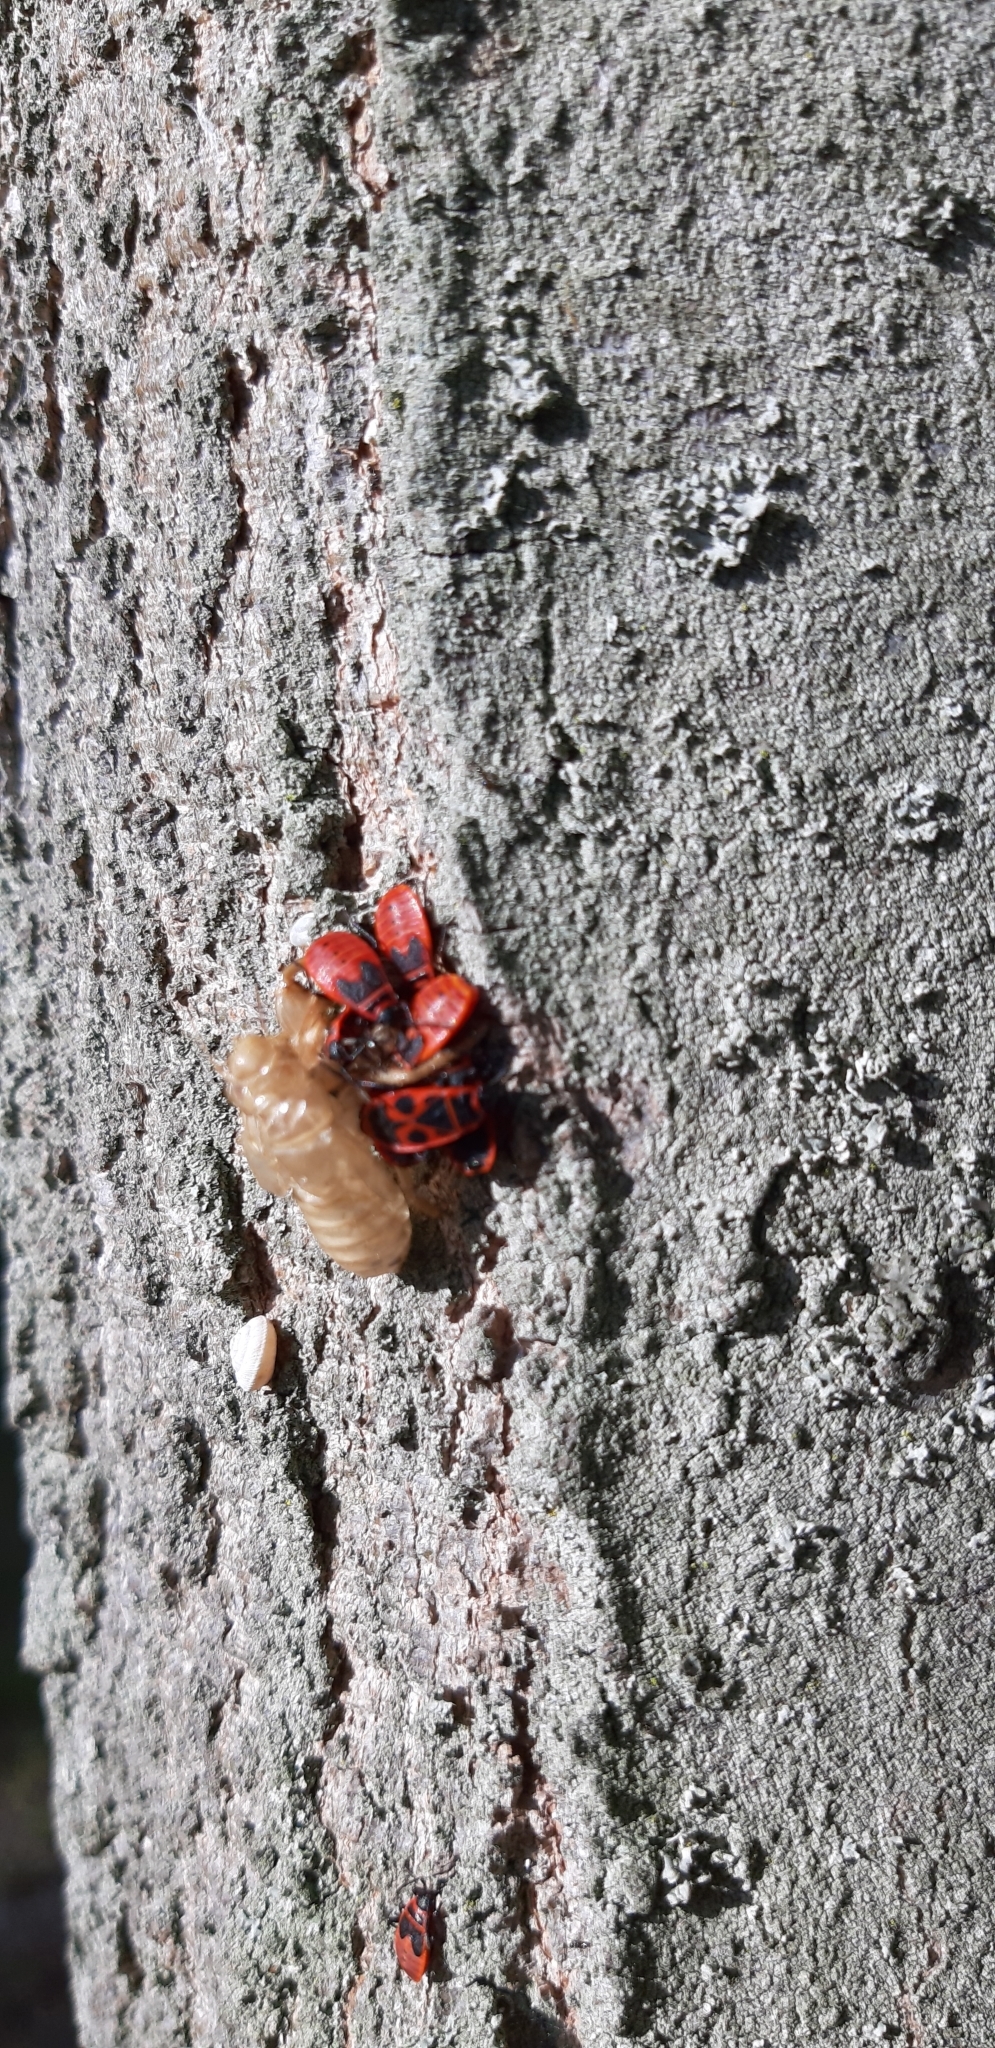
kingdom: Animalia
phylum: Arthropoda
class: Insecta
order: Hemiptera
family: Pyrrhocoridae
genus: Pyrrhocoris
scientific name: Pyrrhocoris apterus
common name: Firebug
